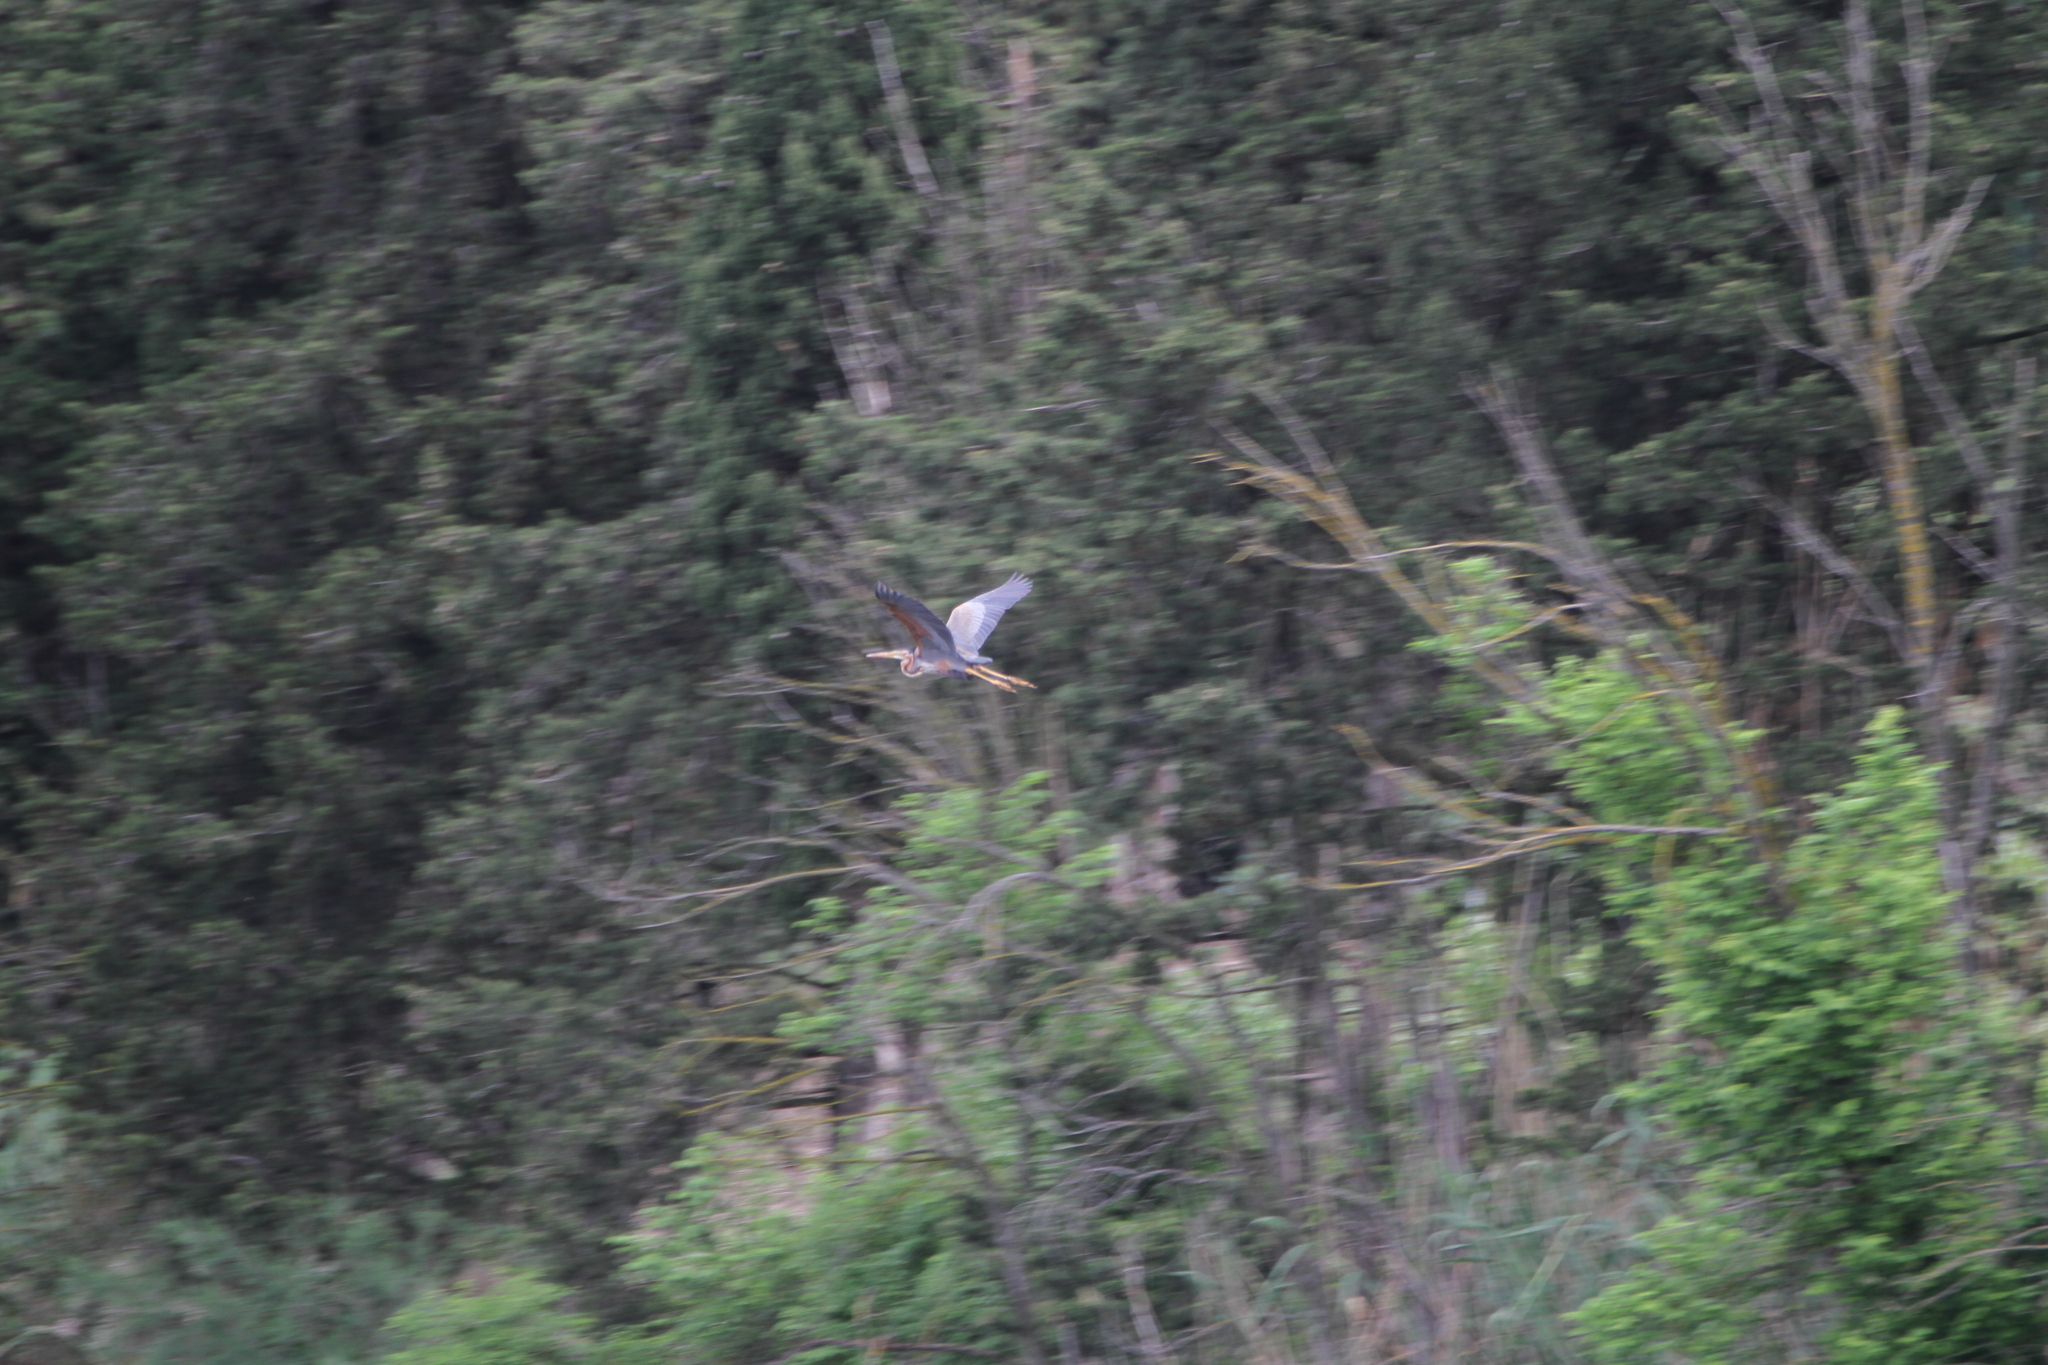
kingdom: Animalia
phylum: Chordata
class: Aves
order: Pelecaniformes
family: Ardeidae
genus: Ardea
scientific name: Ardea purpurea
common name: Purple heron
